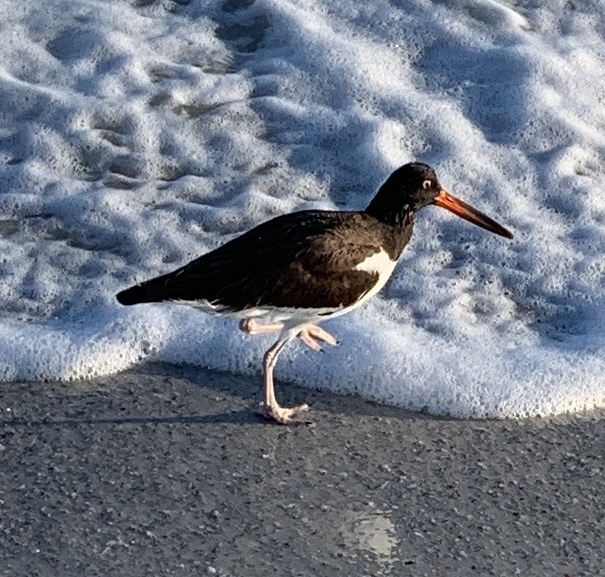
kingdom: Animalia
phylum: Chordata
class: Aves
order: Charadriiformes
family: Haematopodidae
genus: Haematopus
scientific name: Haematopus palliatus
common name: American oystercatcher
